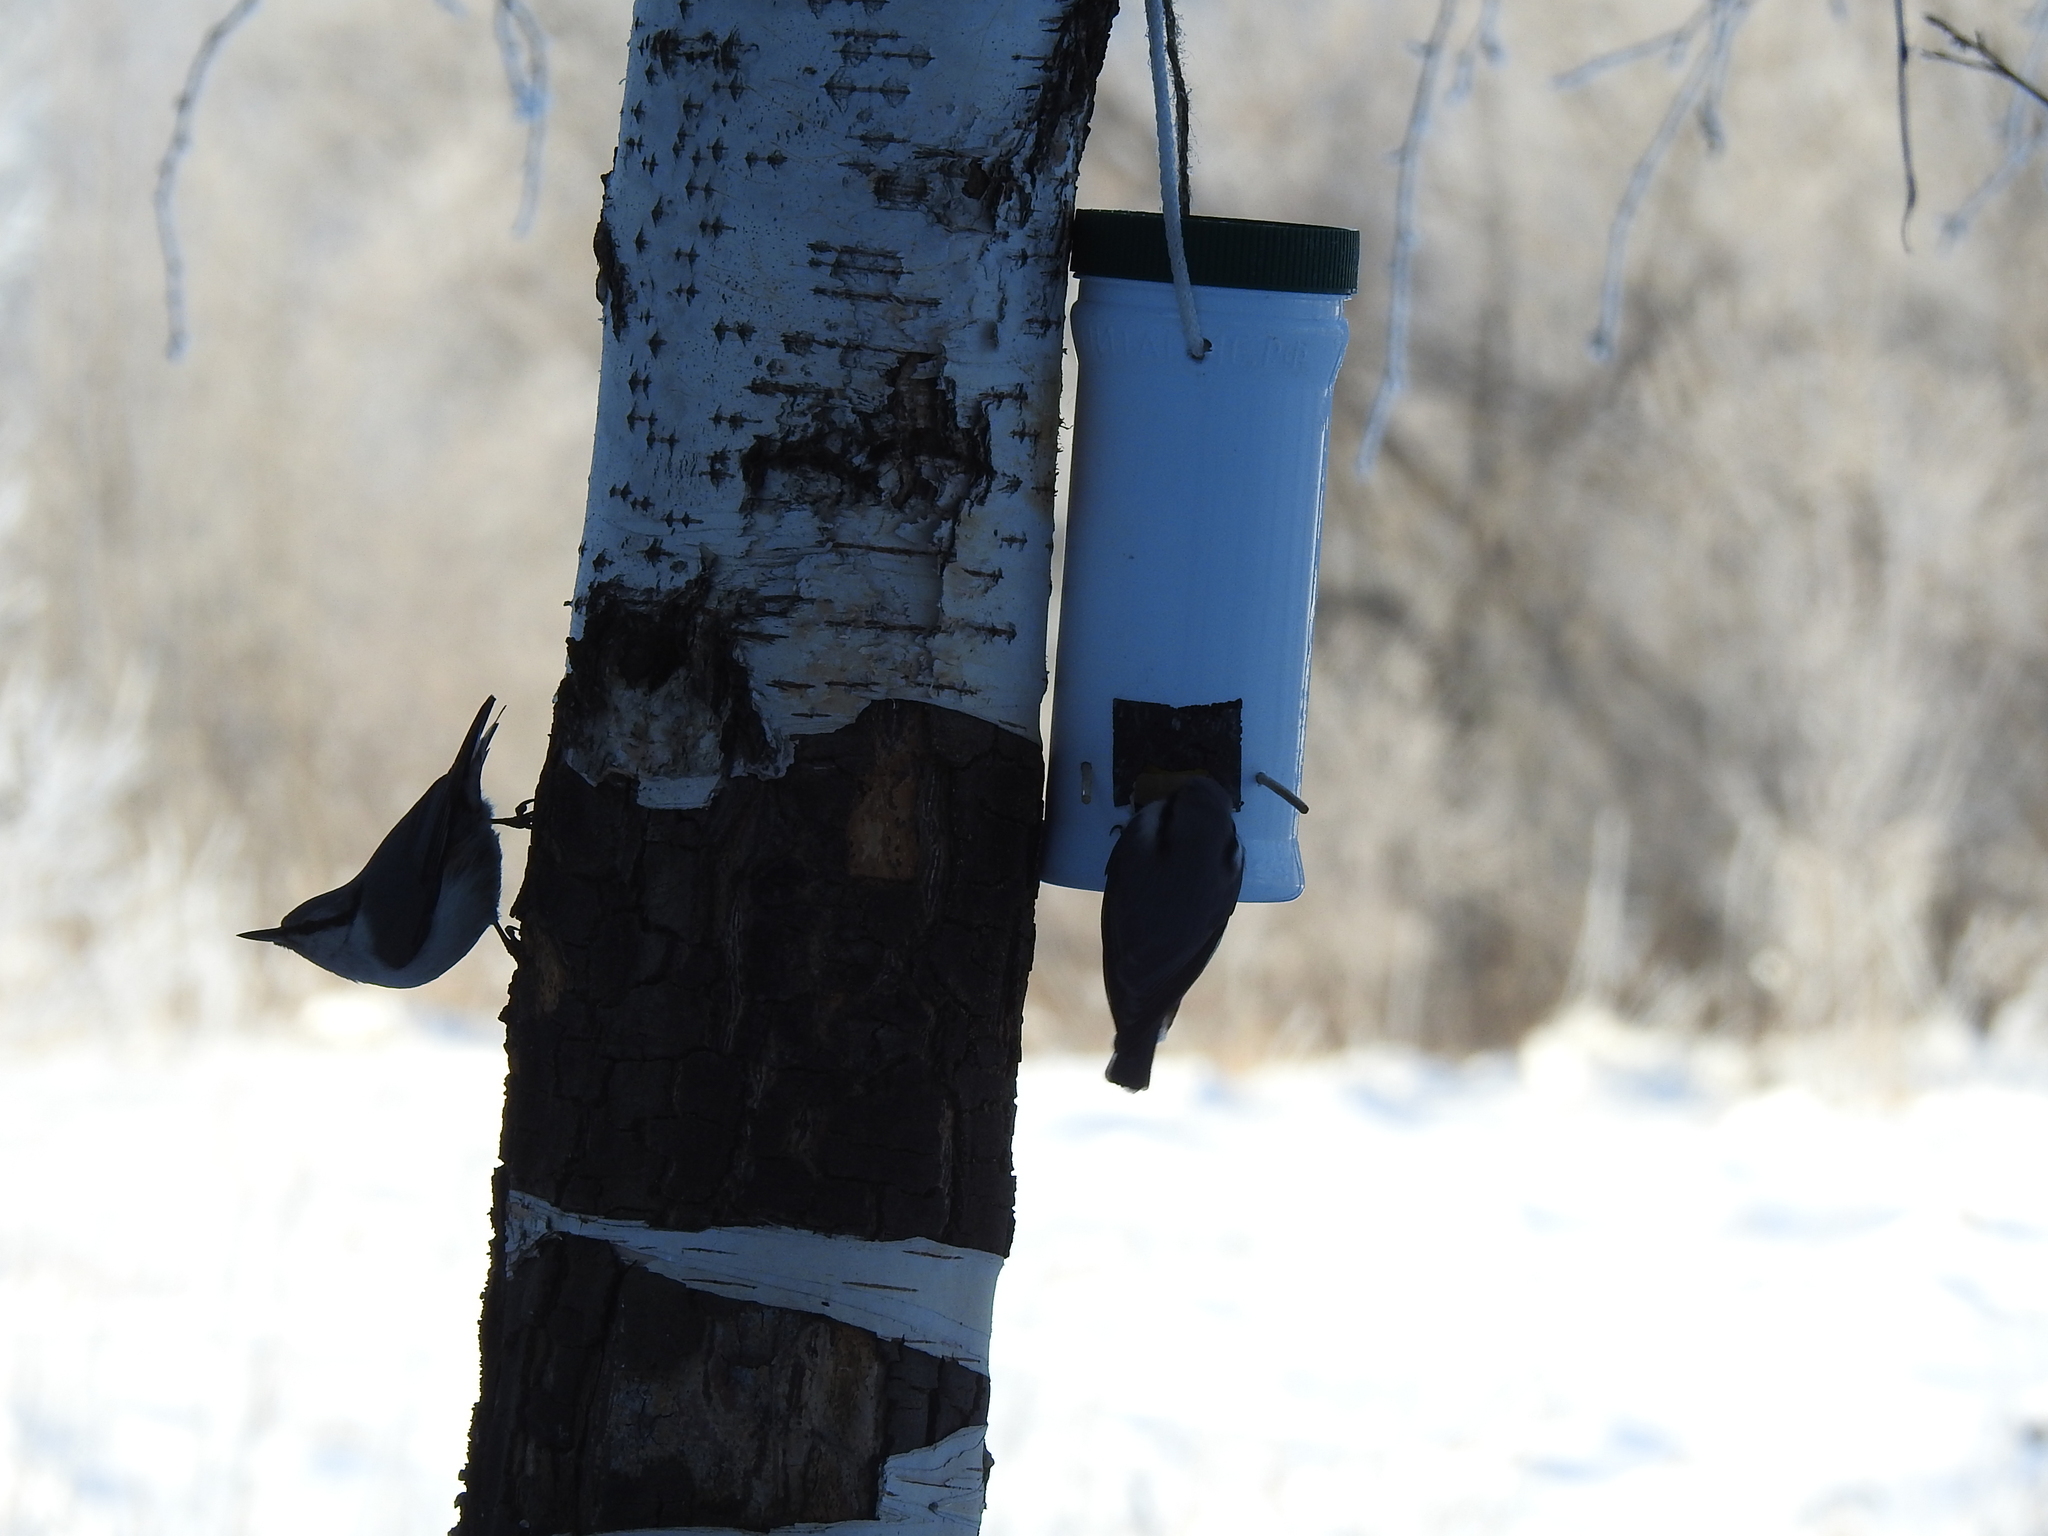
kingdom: Animalia
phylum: Chordata
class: Aves
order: Passeriformes
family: Sittidae
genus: Sitta
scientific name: Sitta europaea
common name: Eurasian nuthatch
